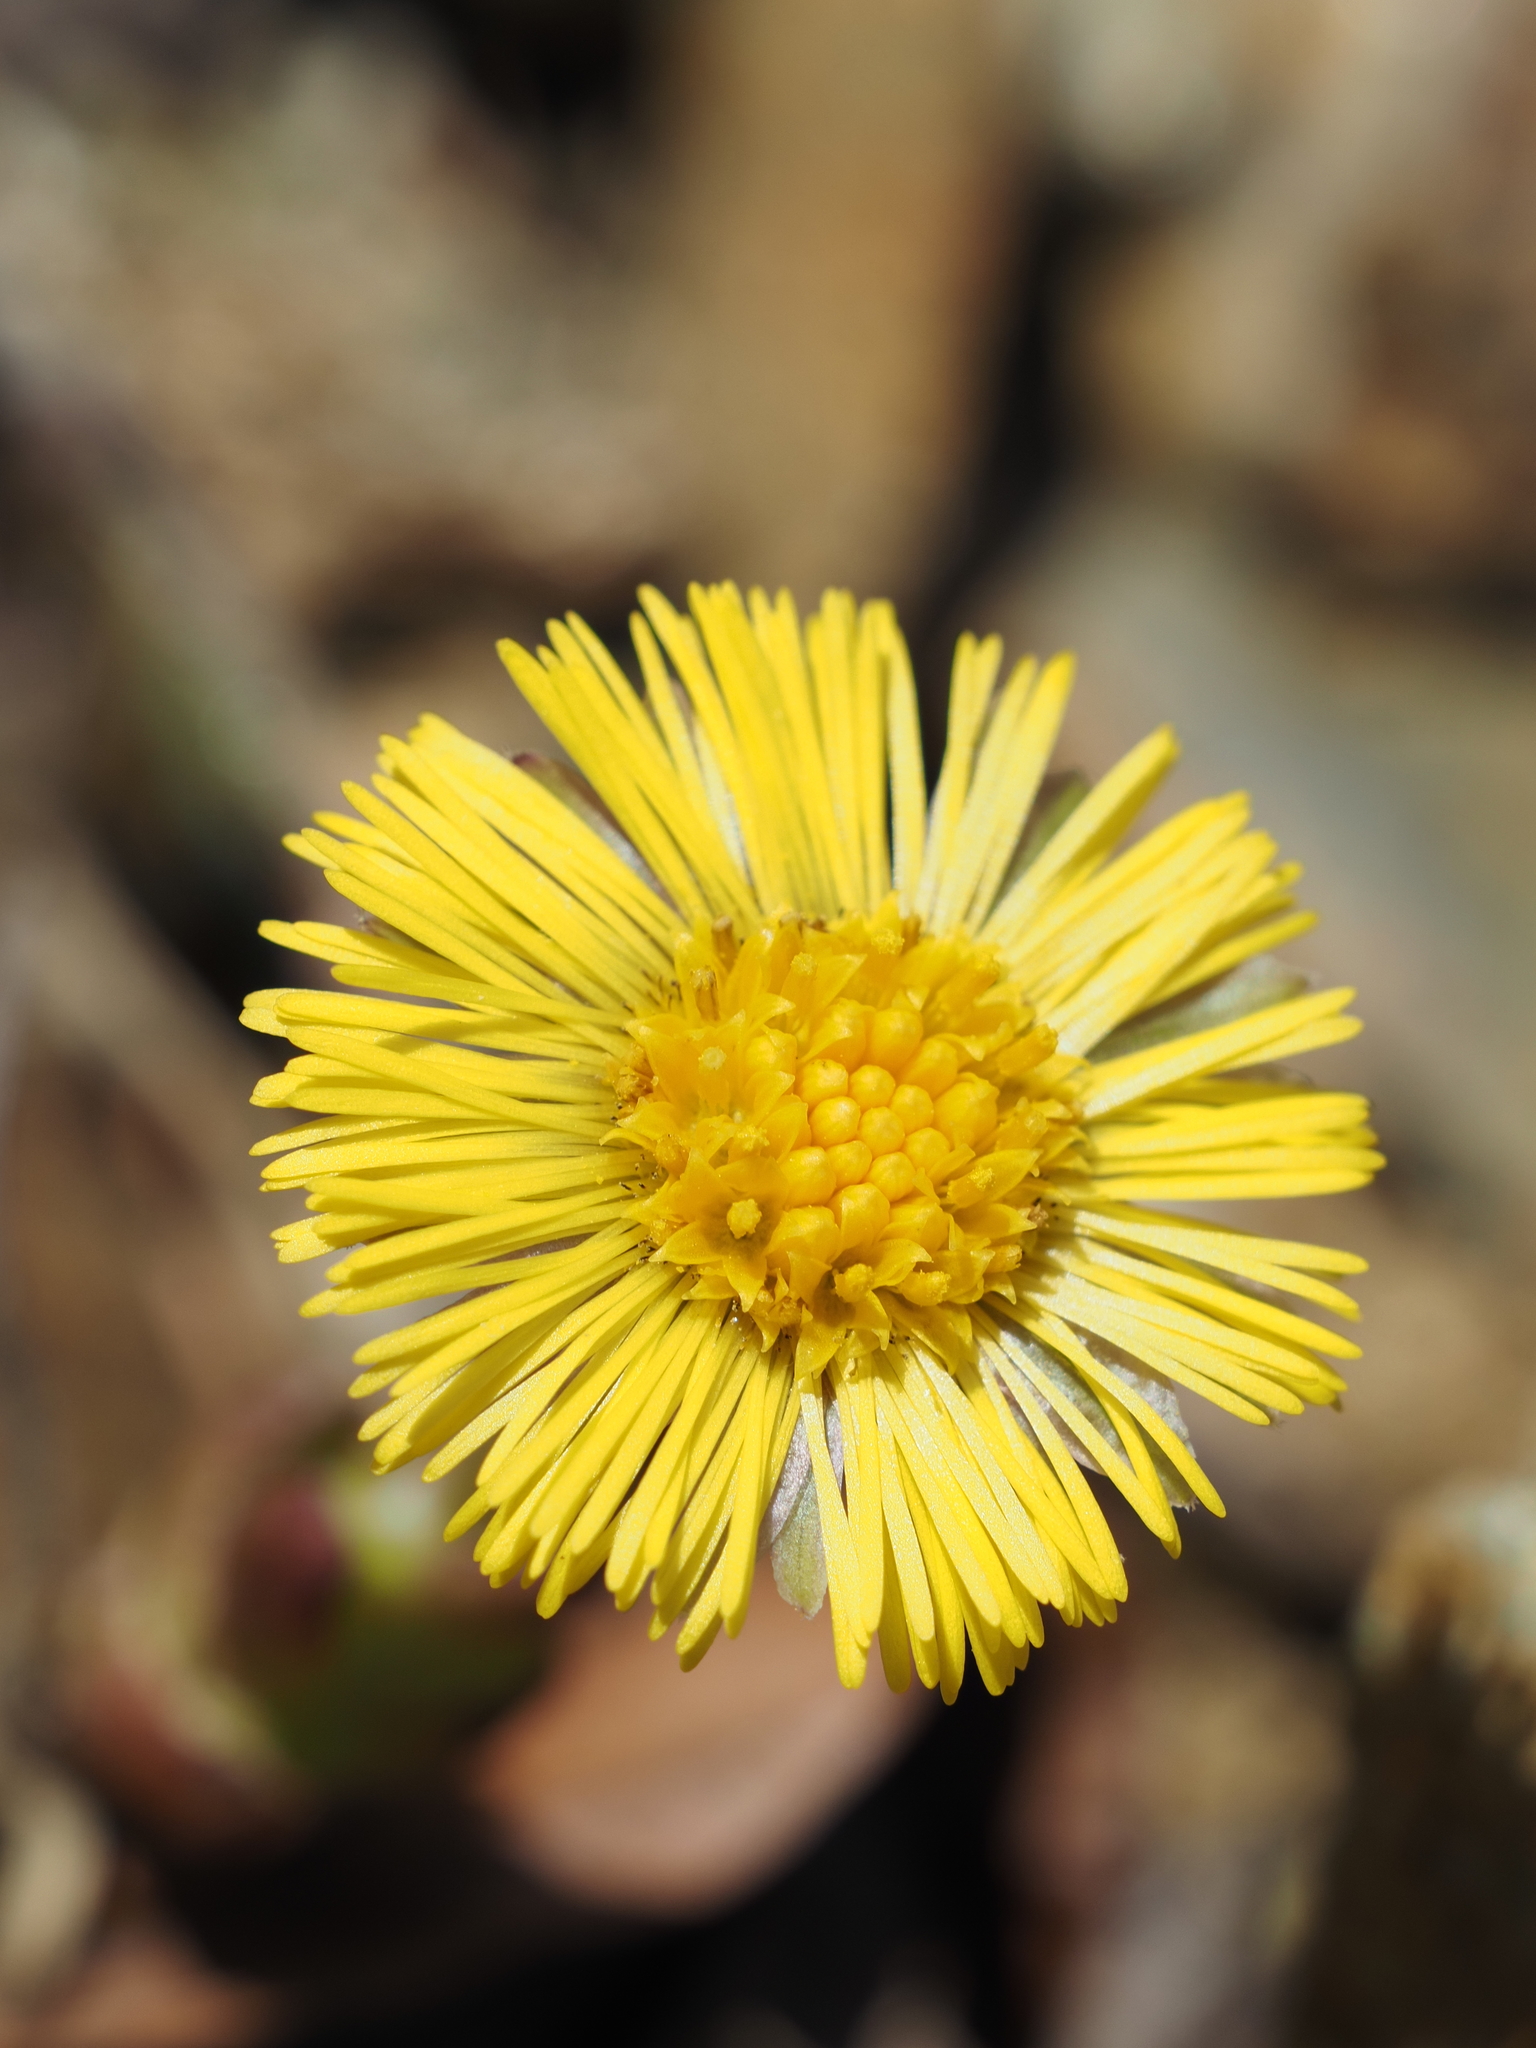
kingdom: Plantae
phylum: Tracheophyta
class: Magnoliopsida
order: Asterales
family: Asteraceae
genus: Tussilago
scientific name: Tussilago farfara
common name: Coltsfoot
